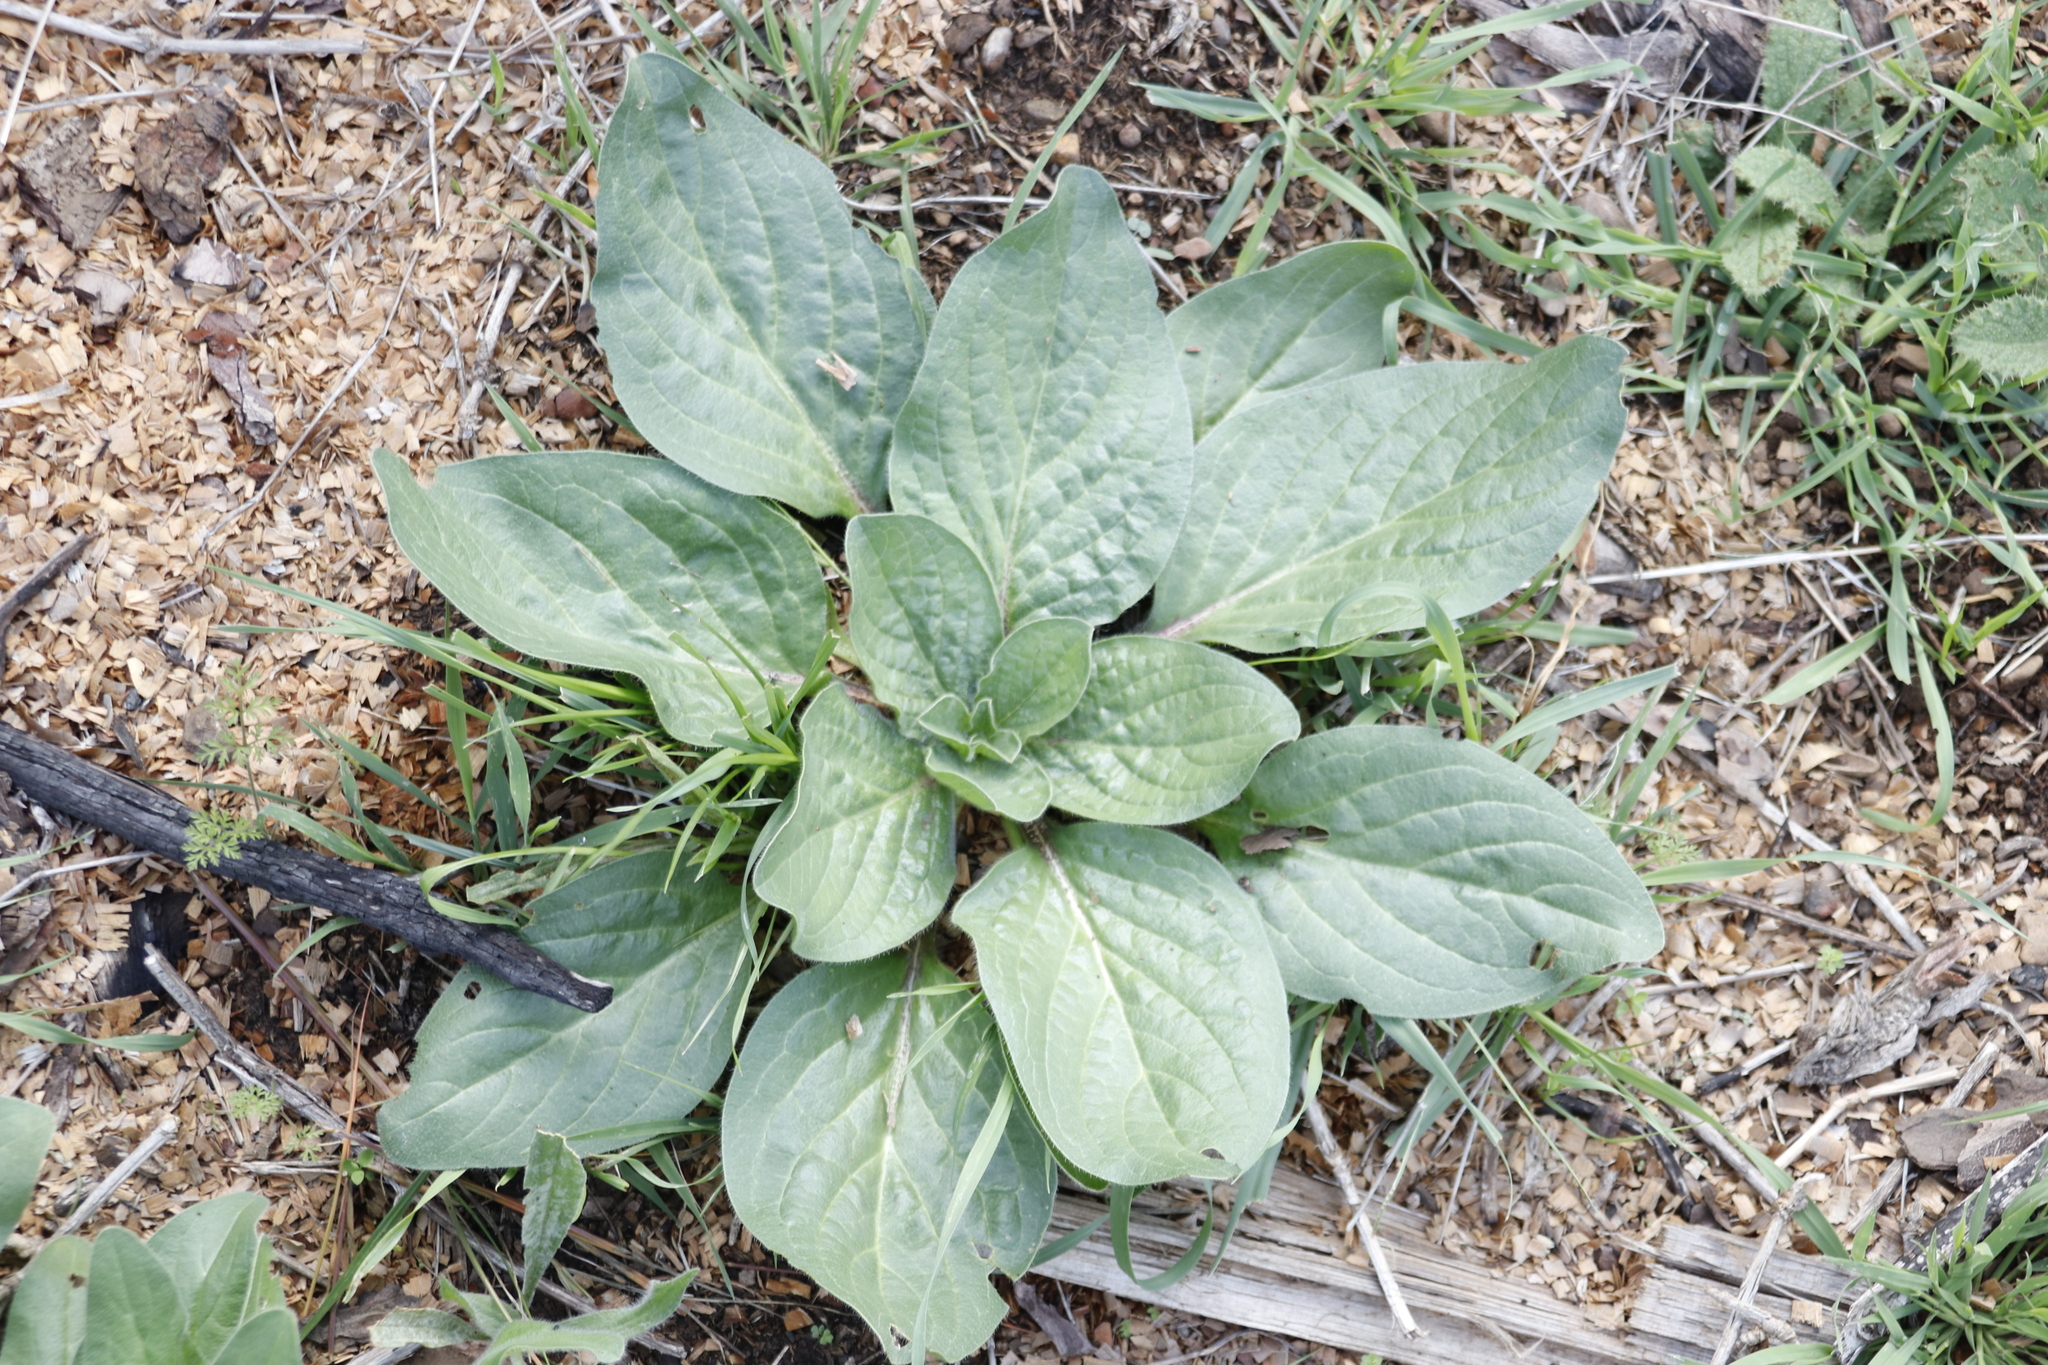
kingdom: Plantae
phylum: Tracheophyta
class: Magnoliopsida
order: Boraginales
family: Boraginaceae
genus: Echium
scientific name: Echium plantagineum
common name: Purple viper's-bugloss
